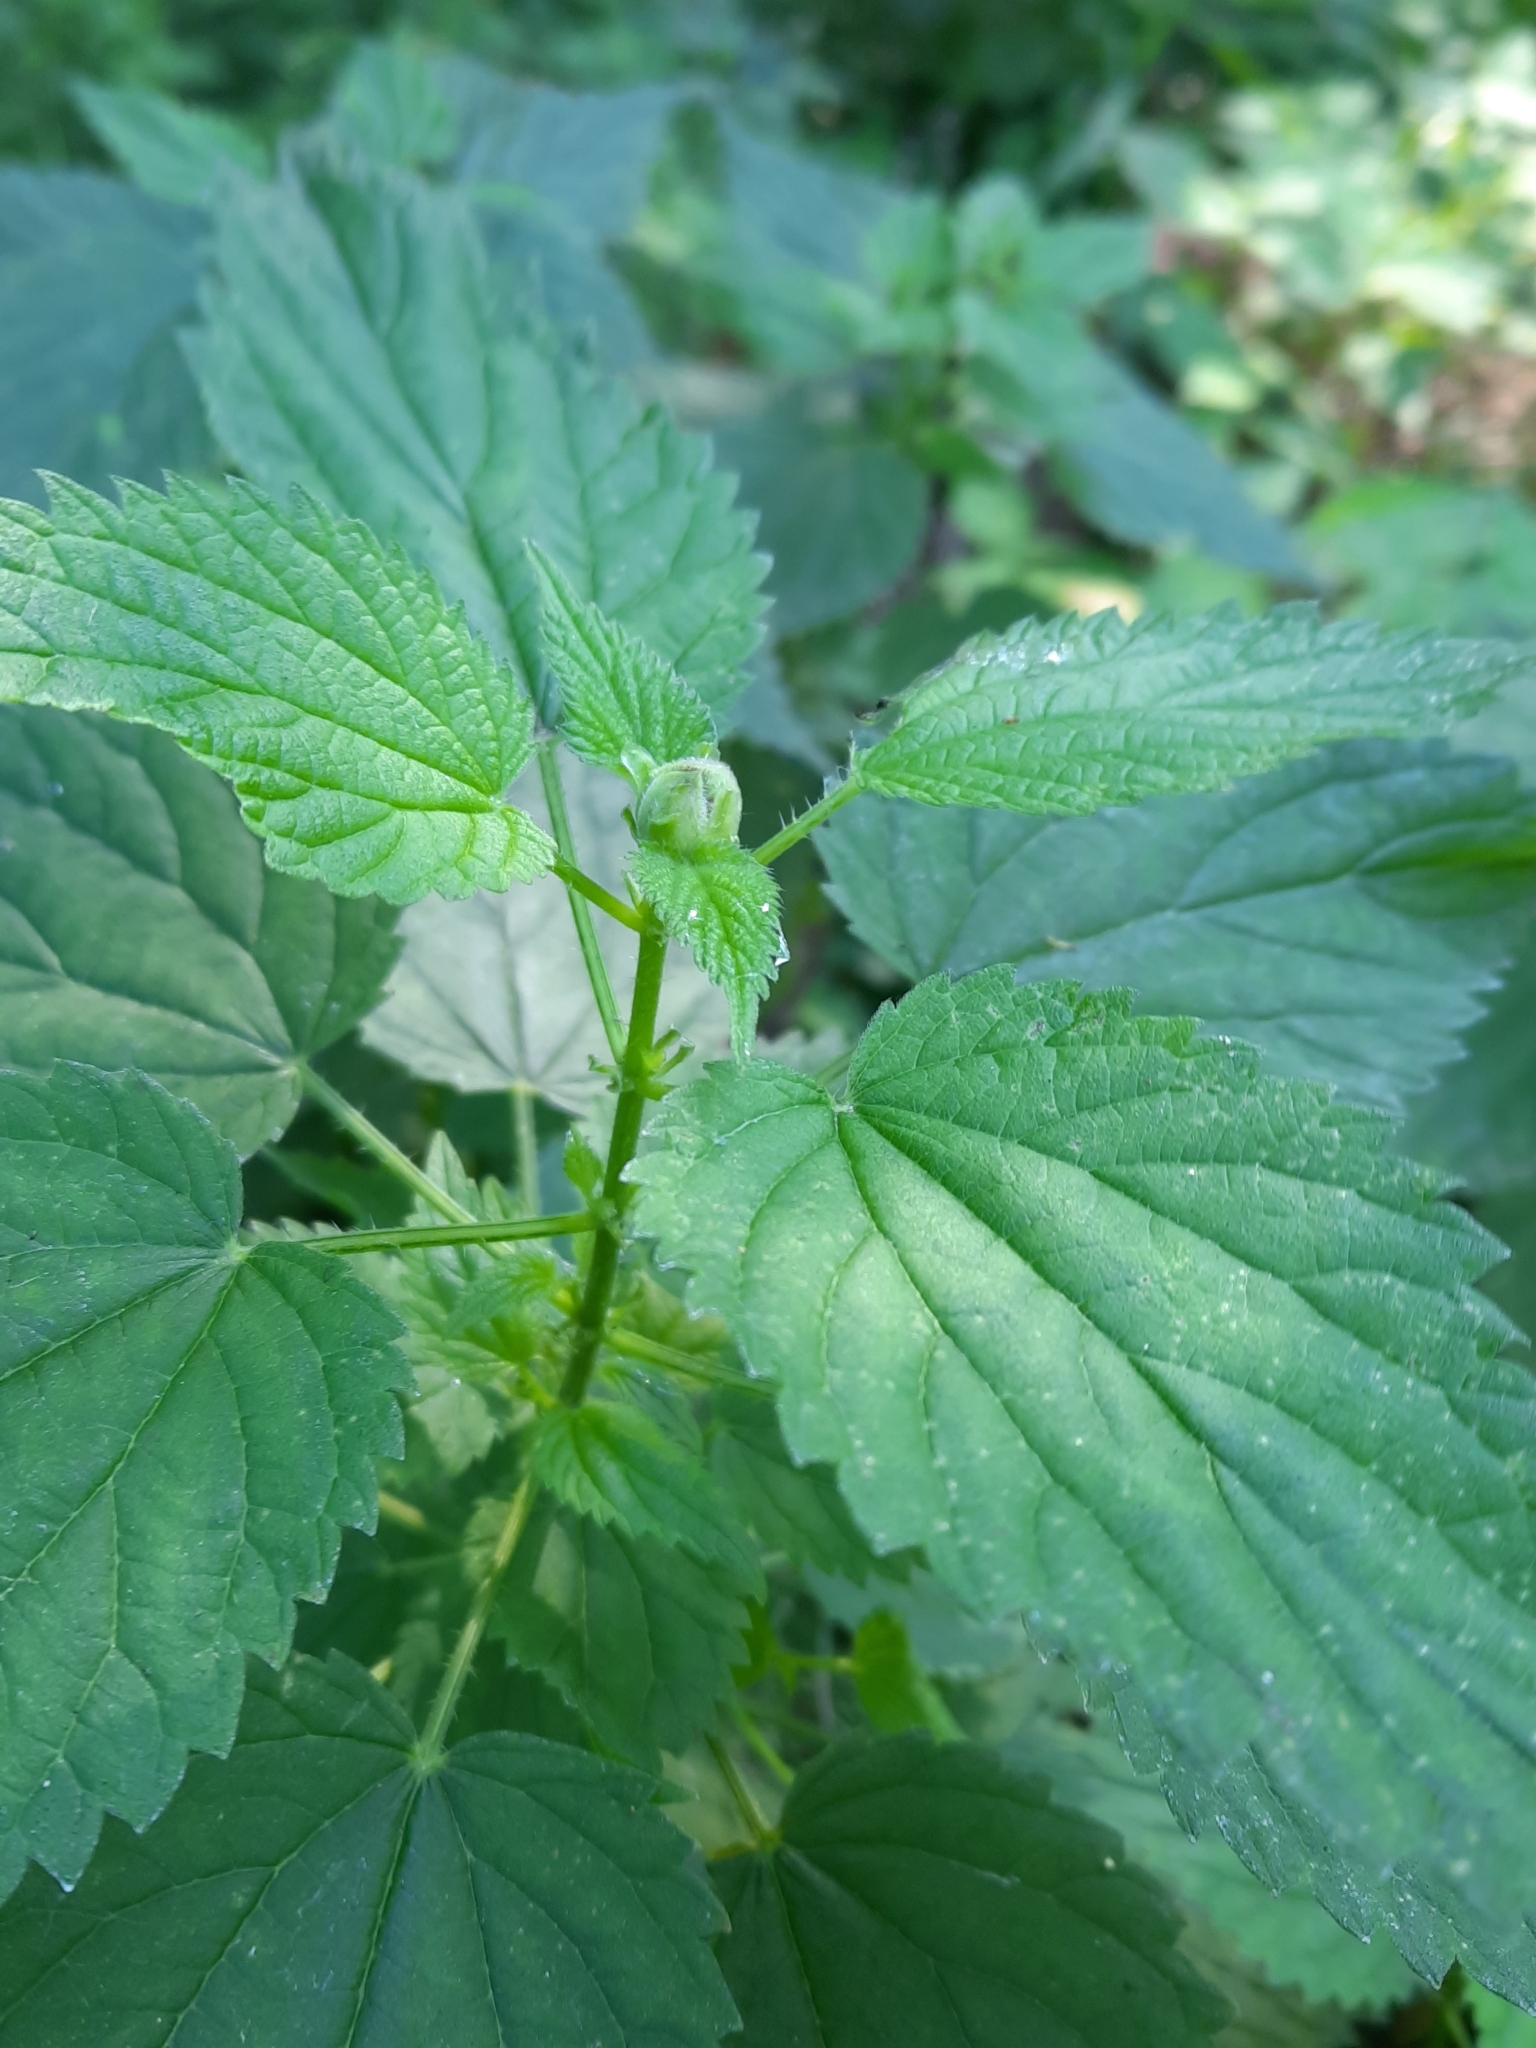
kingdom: Plantae
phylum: Tracheophyta
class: Magnoliopsida
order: Rosales
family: Urticaceae
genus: Urtica
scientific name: Urtica gracilis
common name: Slender stinging nettle
